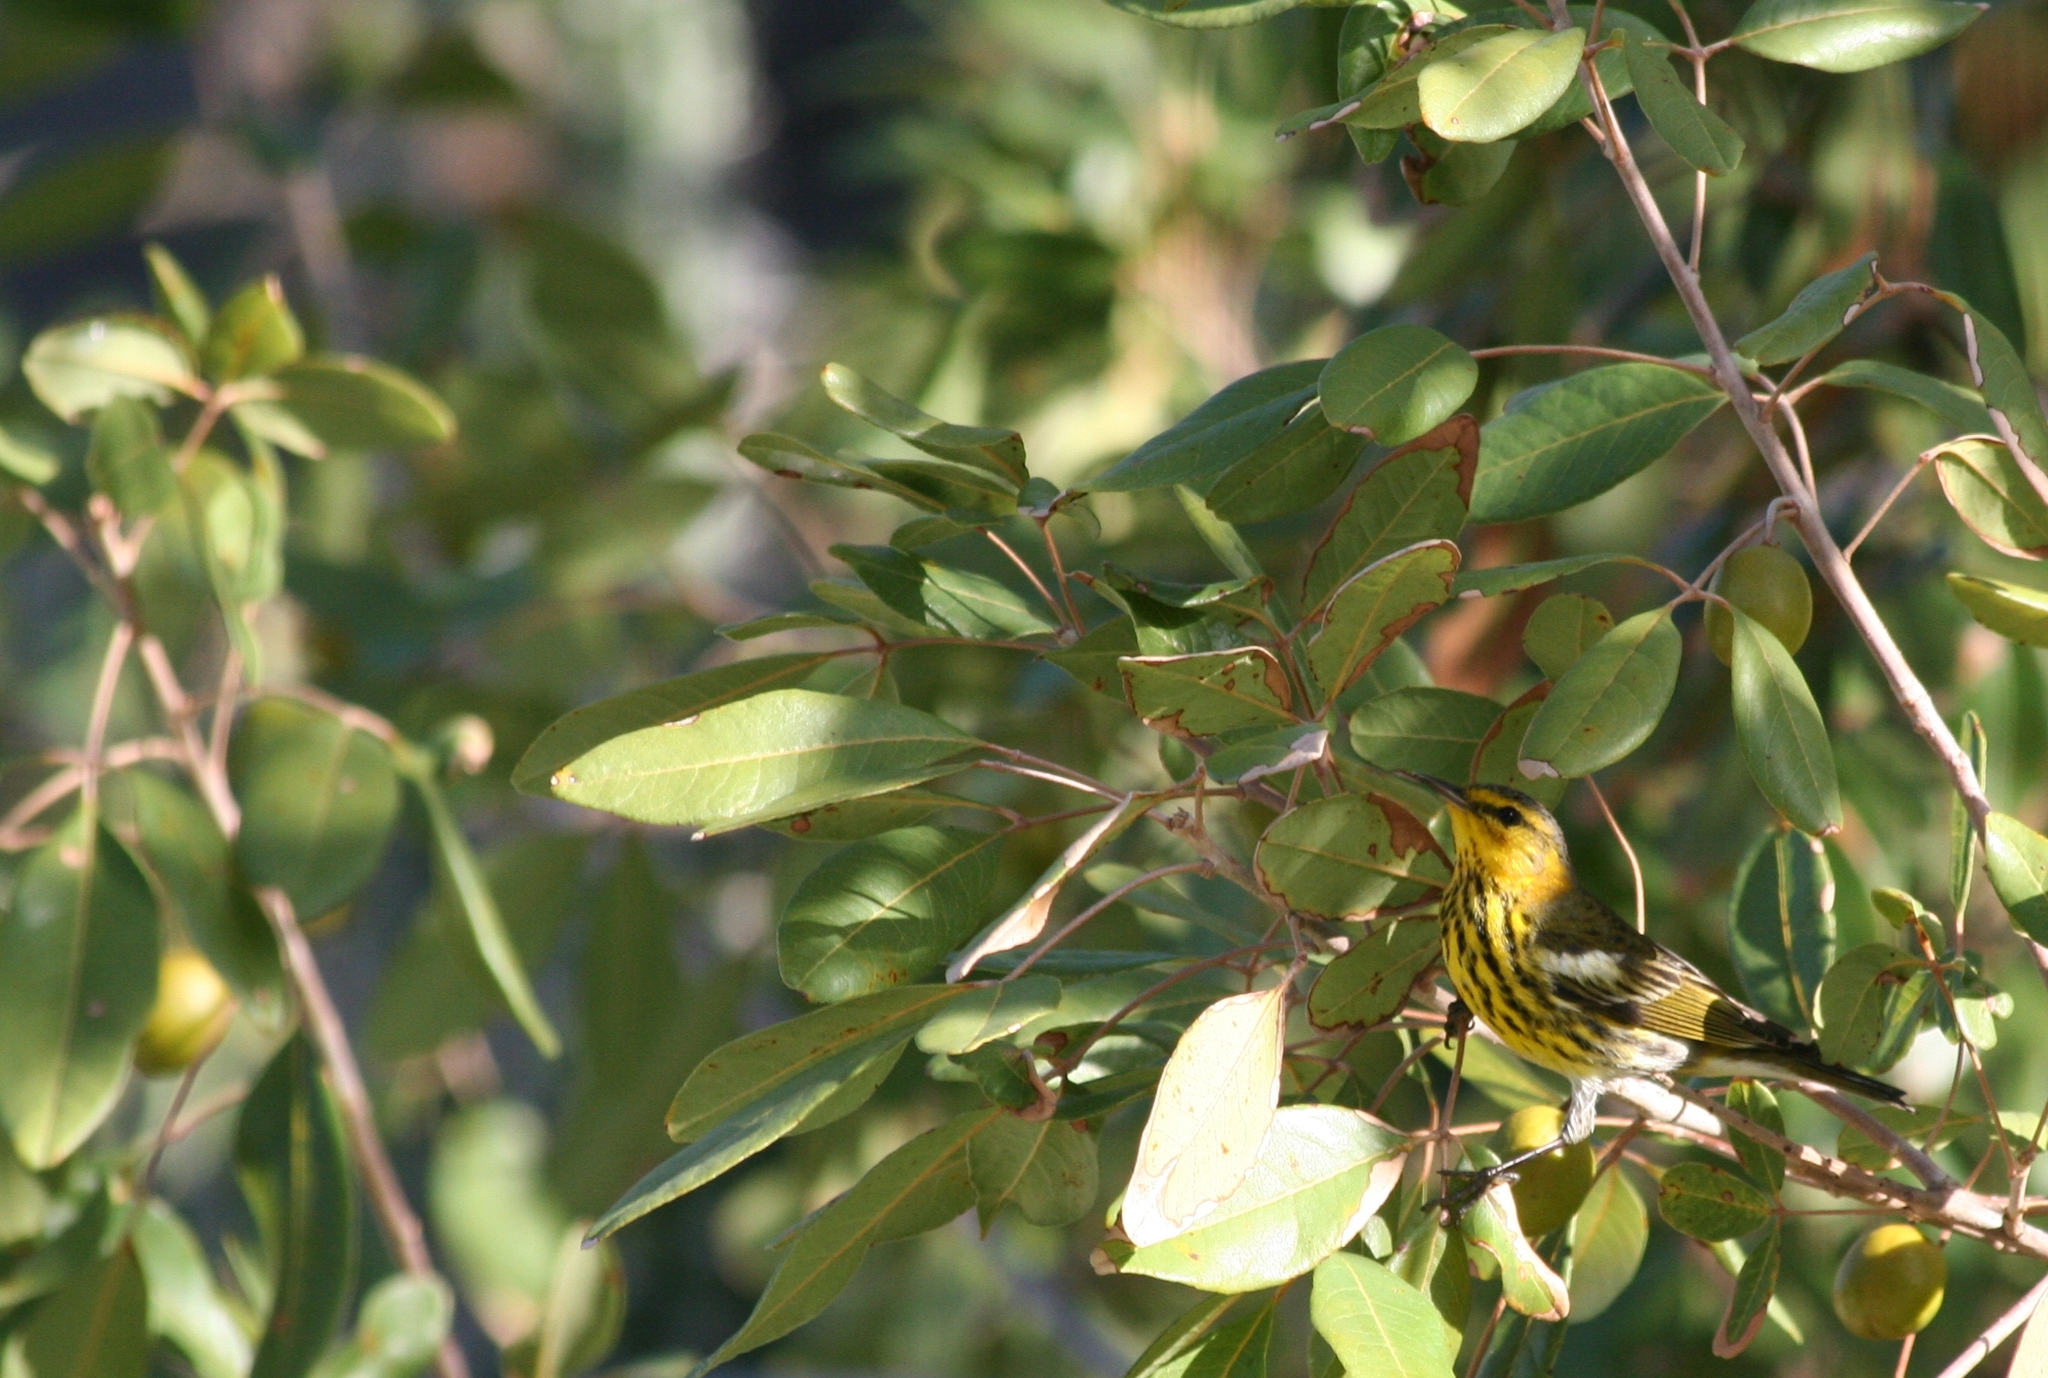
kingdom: Animalia
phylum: Chordata
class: Aves
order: Passeriformes
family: Parulidae
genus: Setophaga
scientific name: Setophaga tigrina
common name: Cape may warbler
